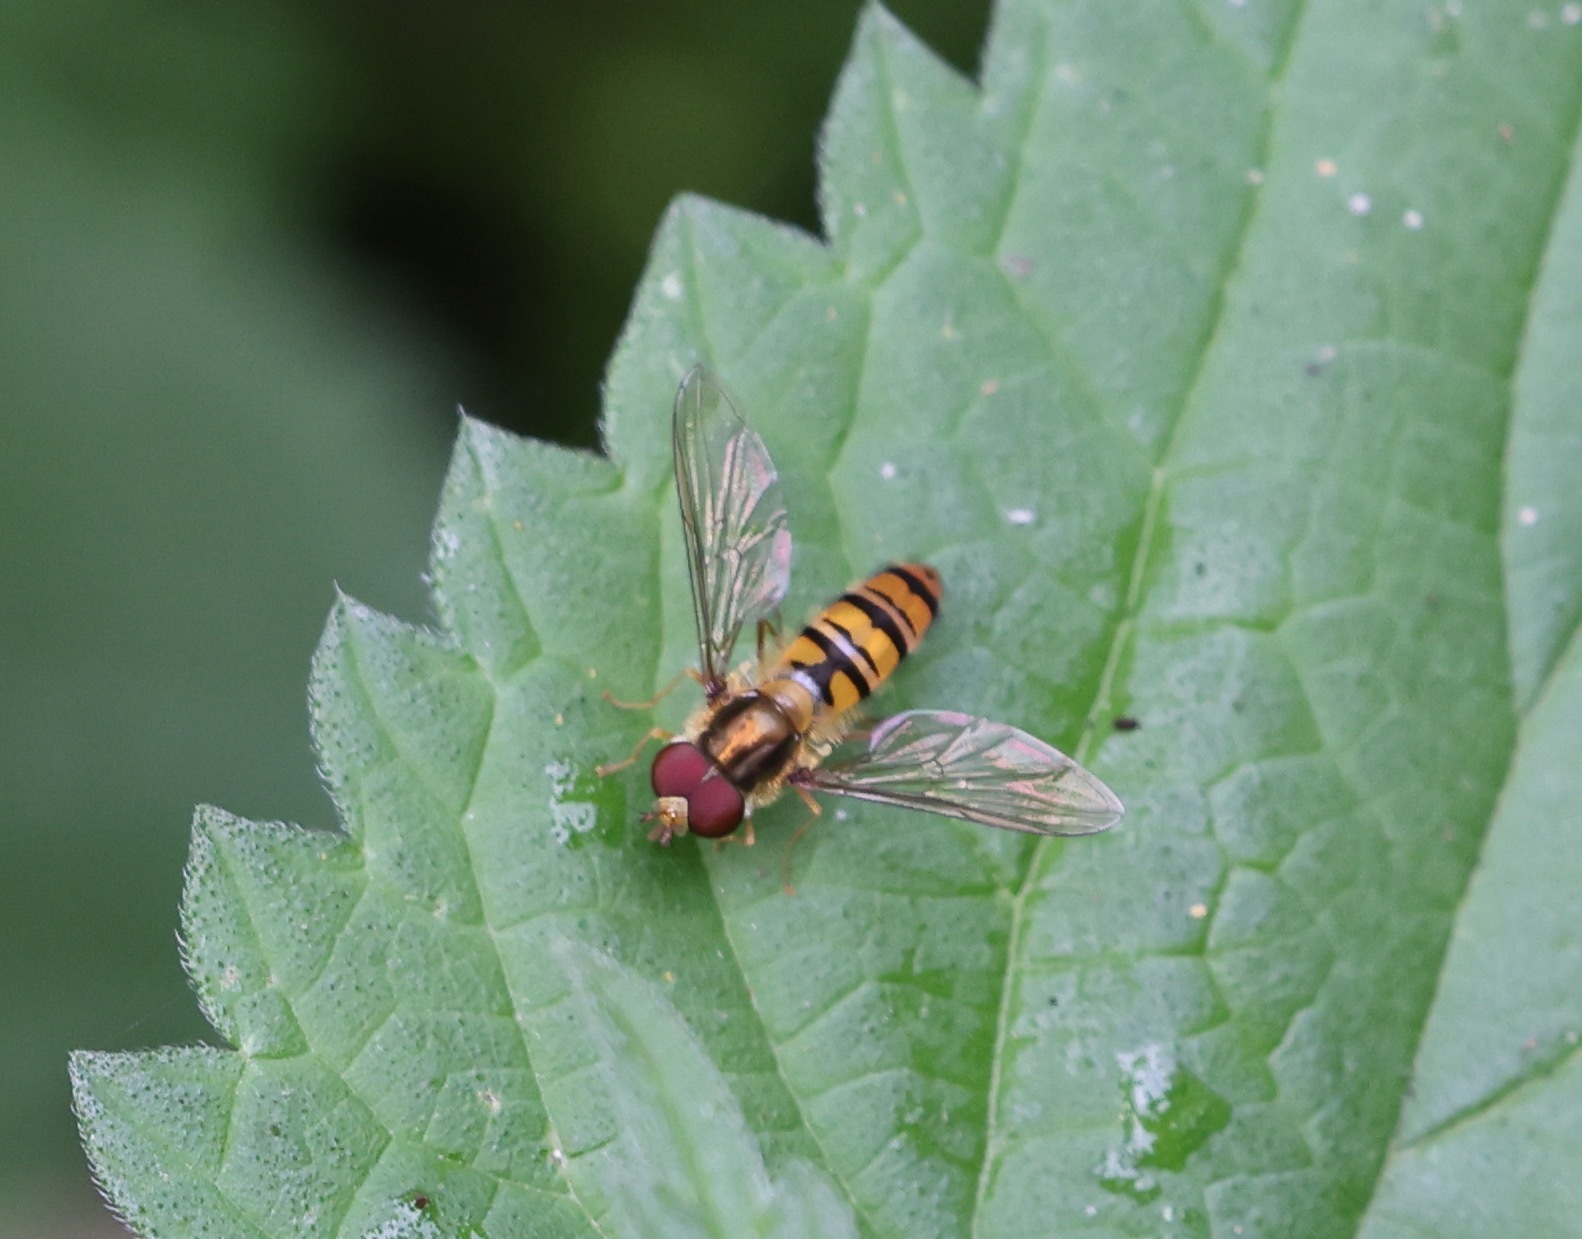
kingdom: Animalia
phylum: Arthropoda
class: Insecta
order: Diptera
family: Syrphidae
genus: Episyrphus
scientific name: Episyrphus balteatus
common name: Marmalade hoverfly
